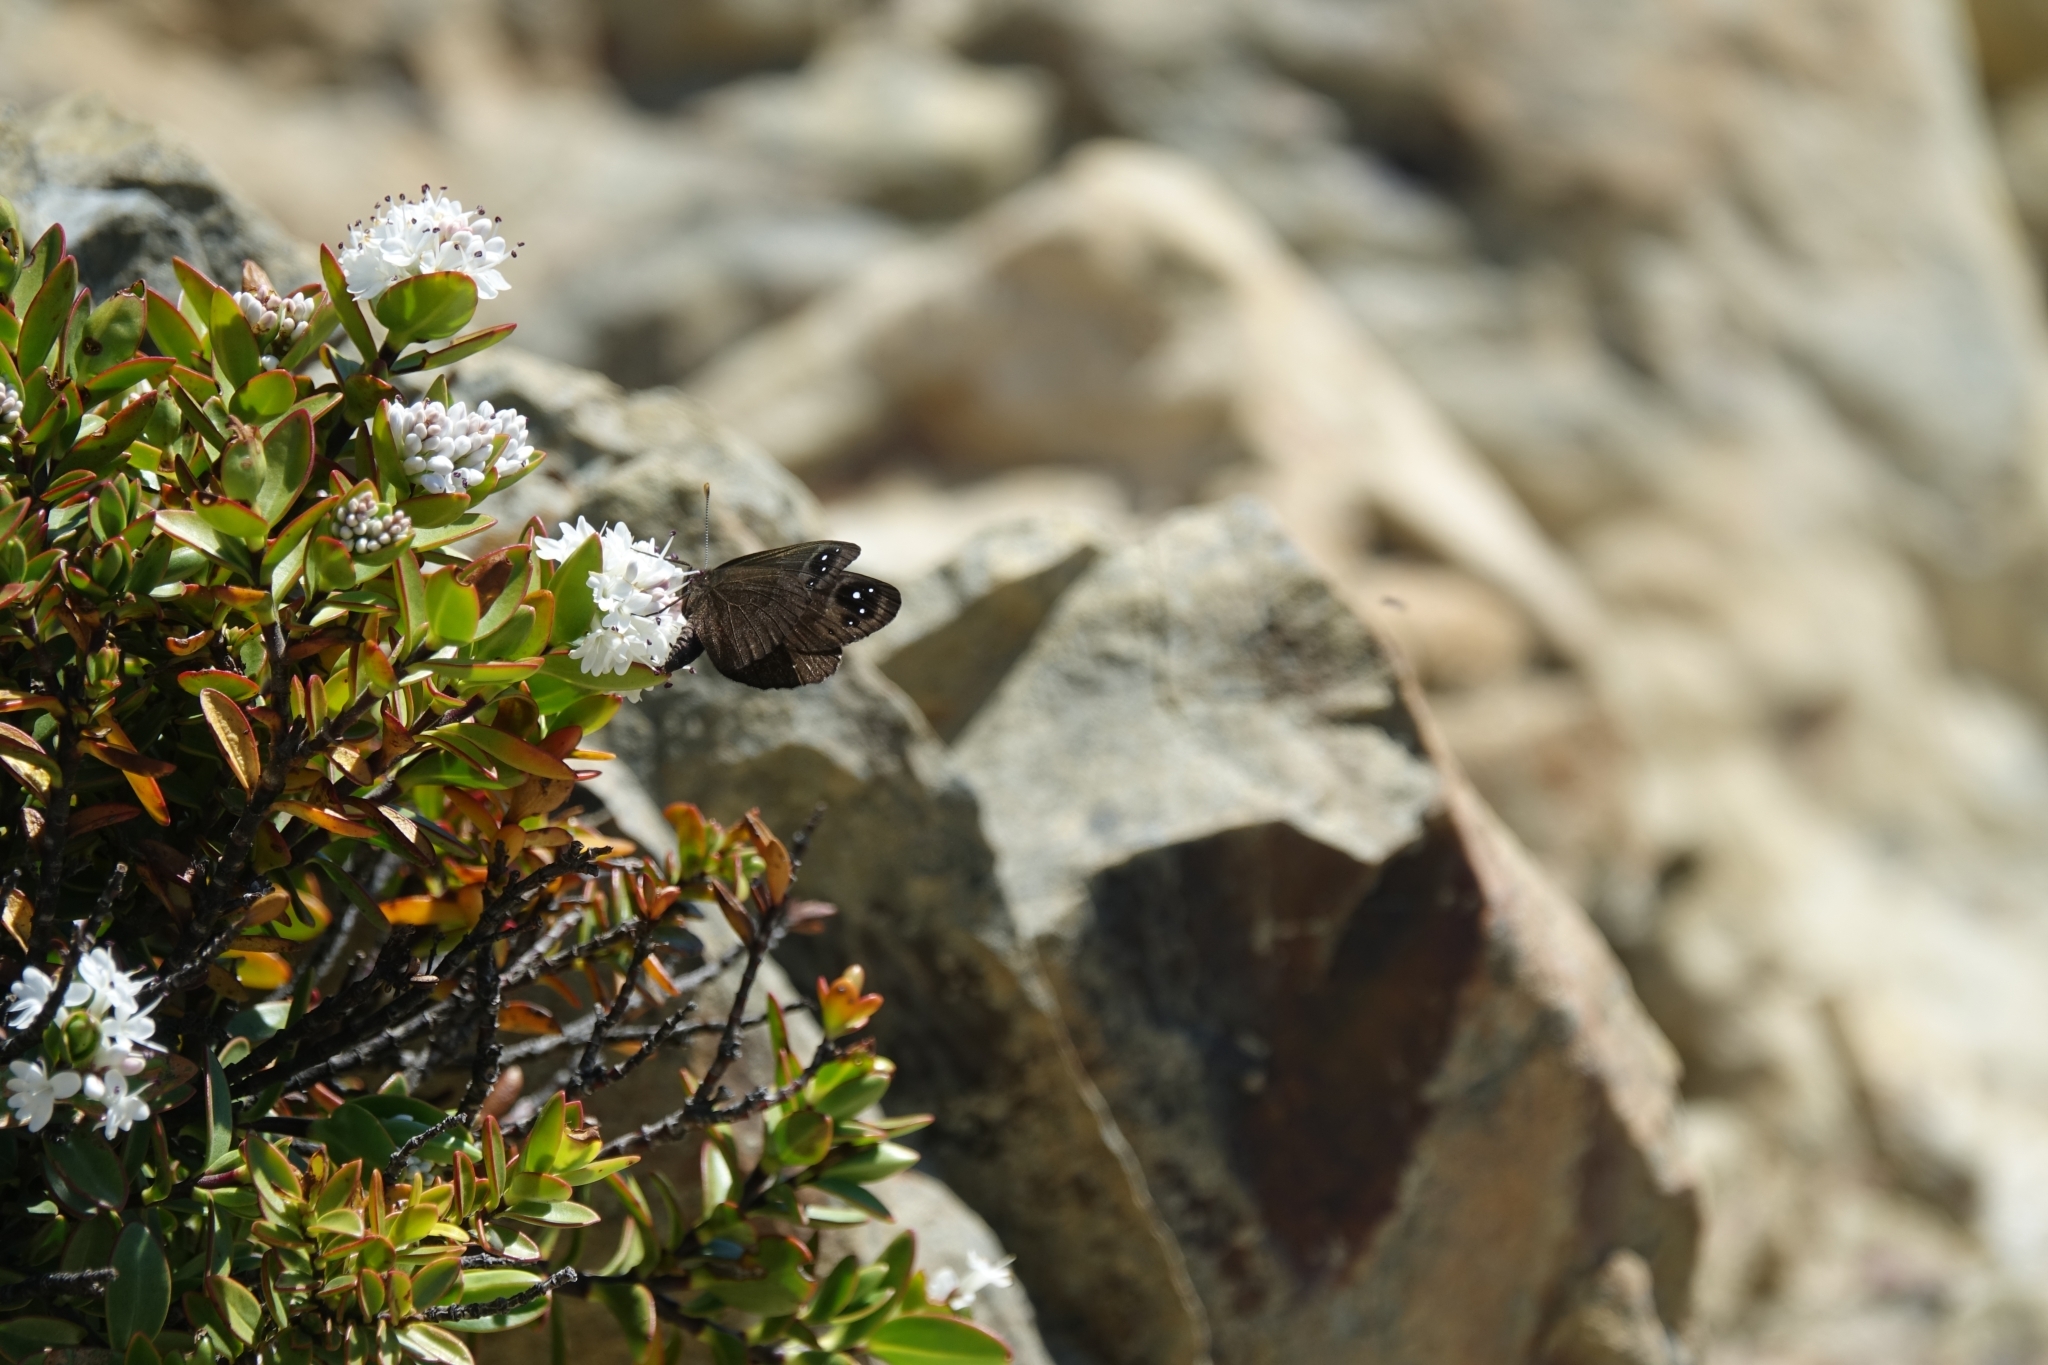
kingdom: Animalia
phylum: Arthropoda
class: Insecta
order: Lepidoptera
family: Nymphalidae
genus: Erebia
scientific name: Erebia Percnodaimon merula
